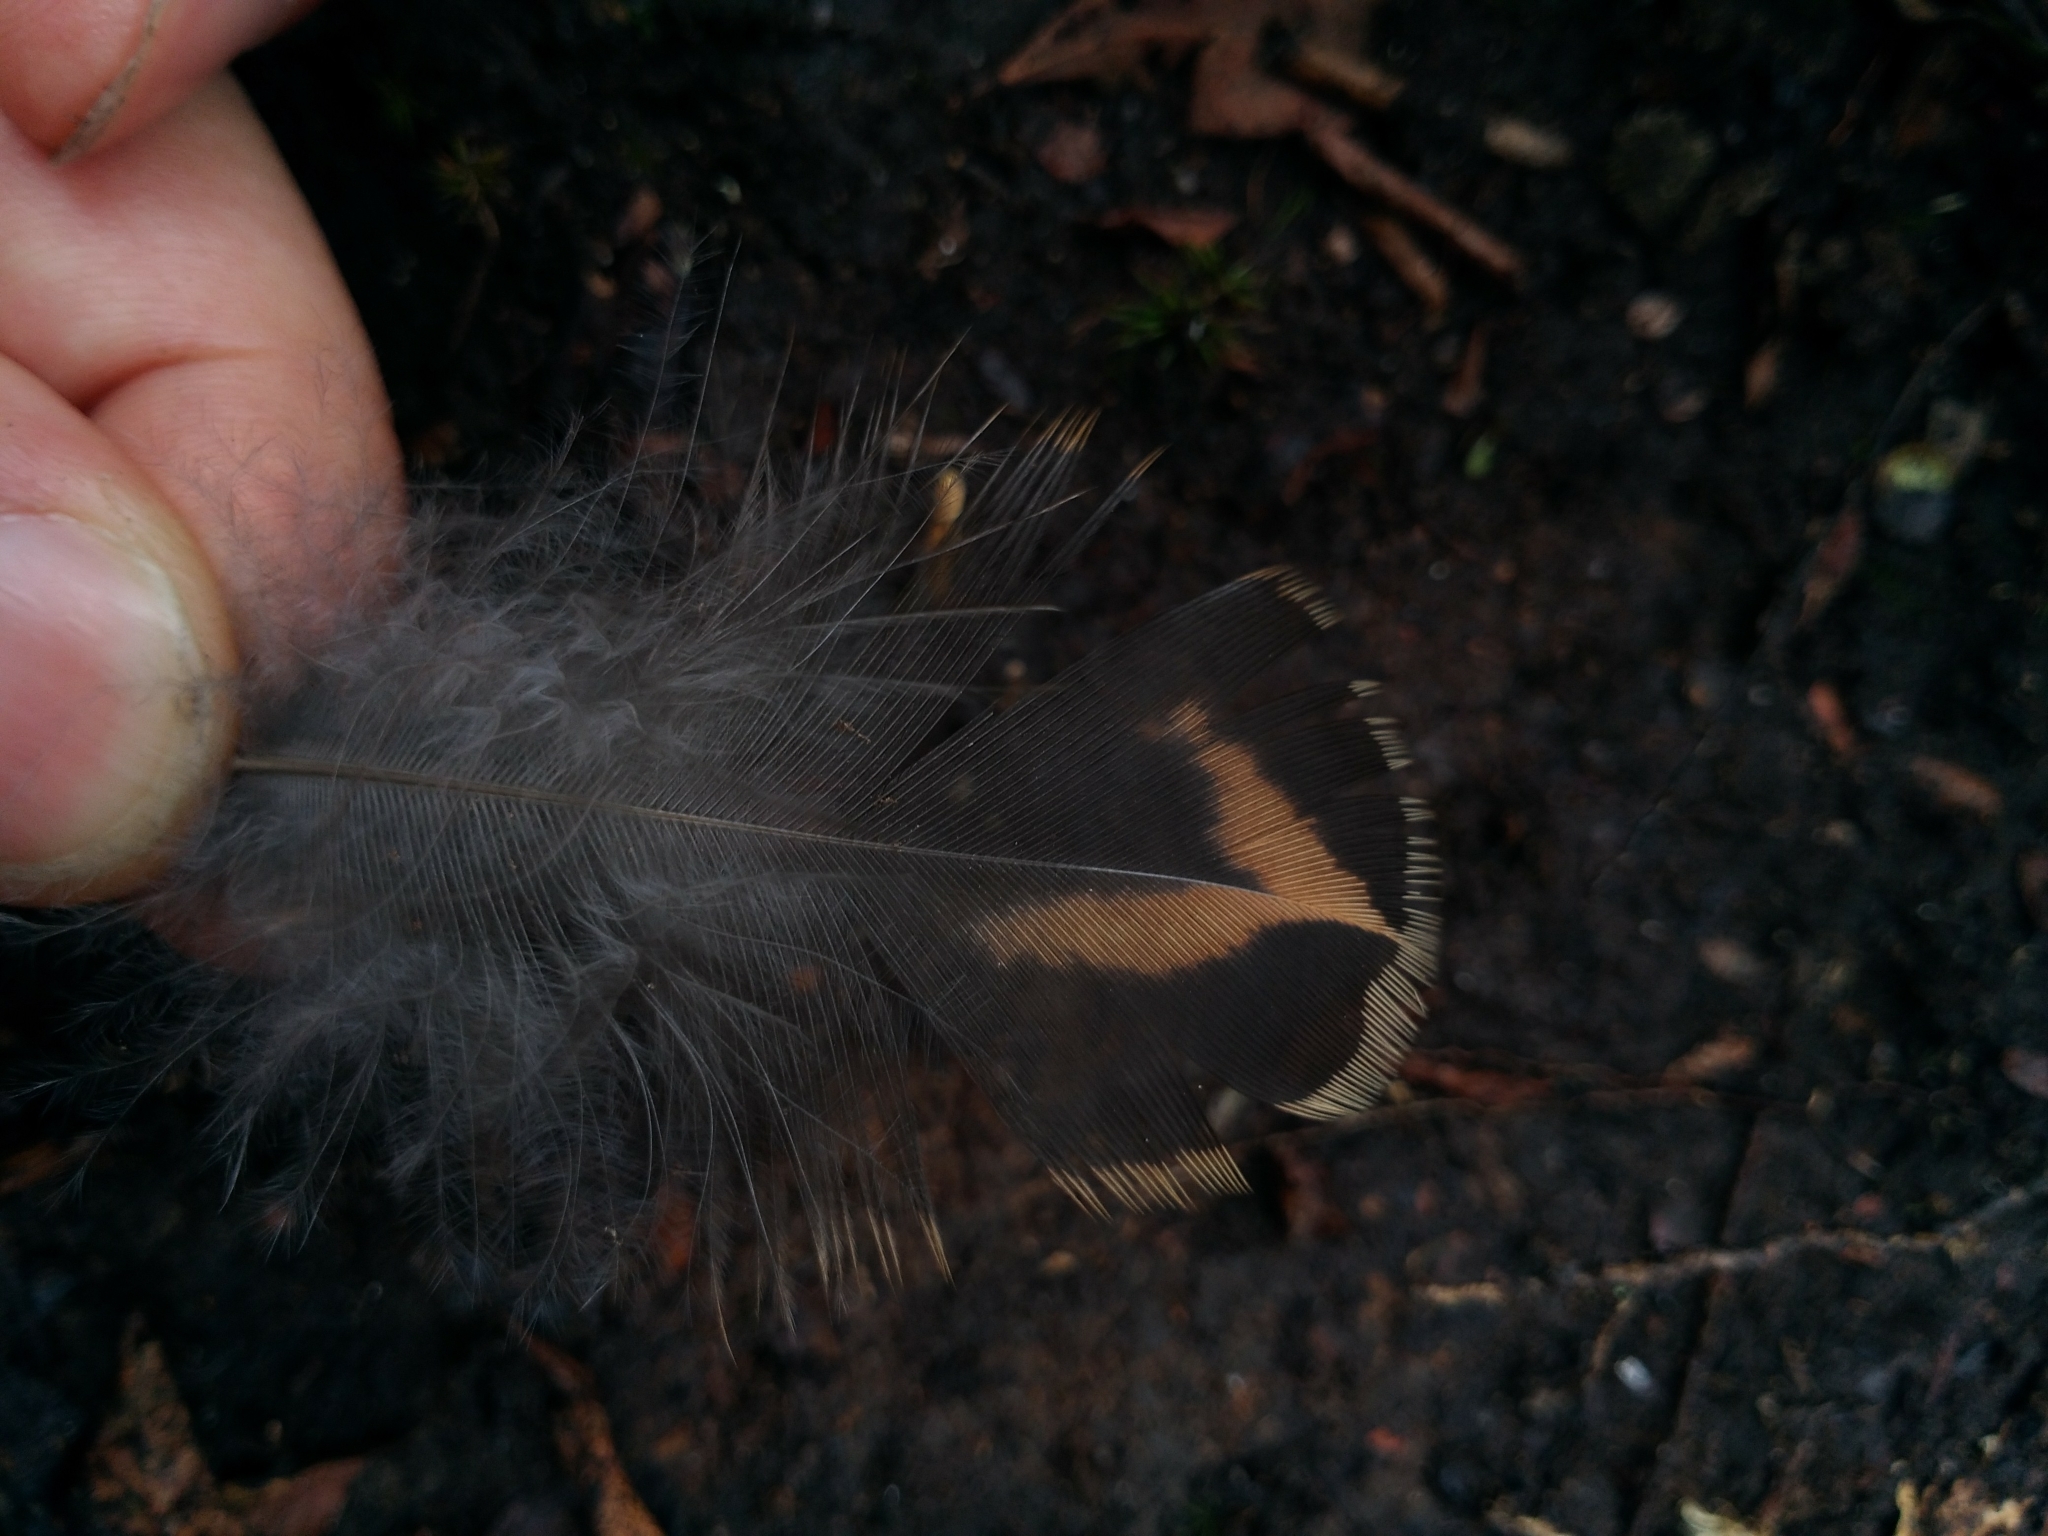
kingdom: Animalia
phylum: Chordata
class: Aves
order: Galliformes
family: Phasianidae
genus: Bonasa
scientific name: Bonasa umbellus
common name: Ruffed grouse
